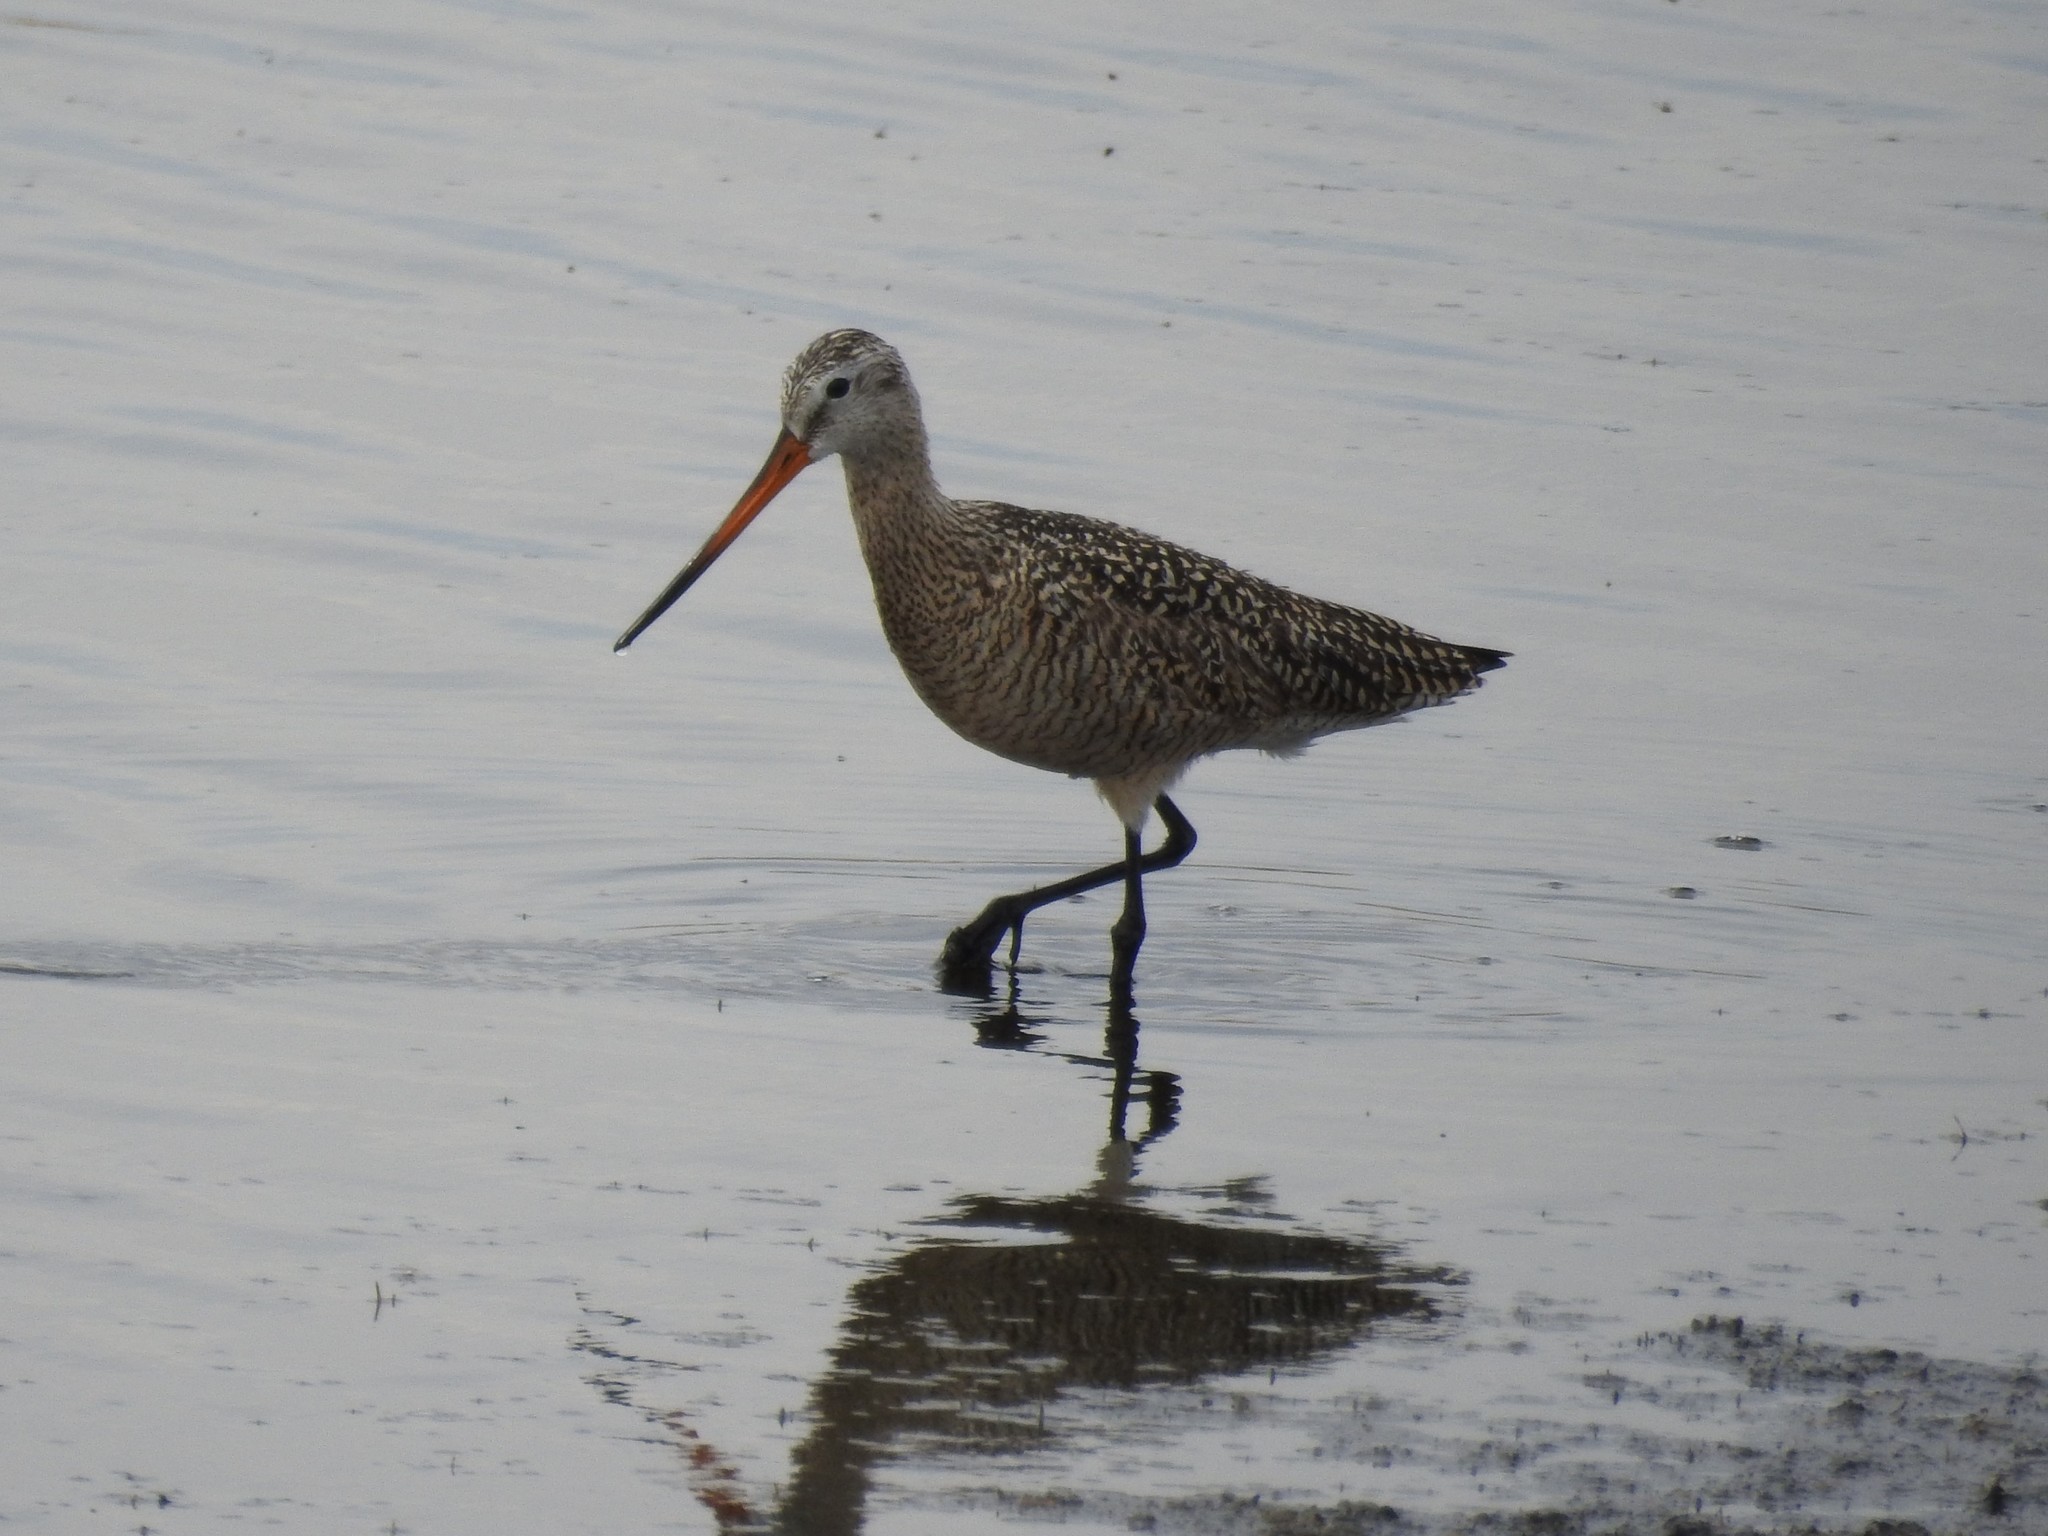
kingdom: Animalia
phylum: Chordata
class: Aves
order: Charadriiformes
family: Scolopacidae
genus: Limosa
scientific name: Limosa fedoa
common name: Marbled godwit
